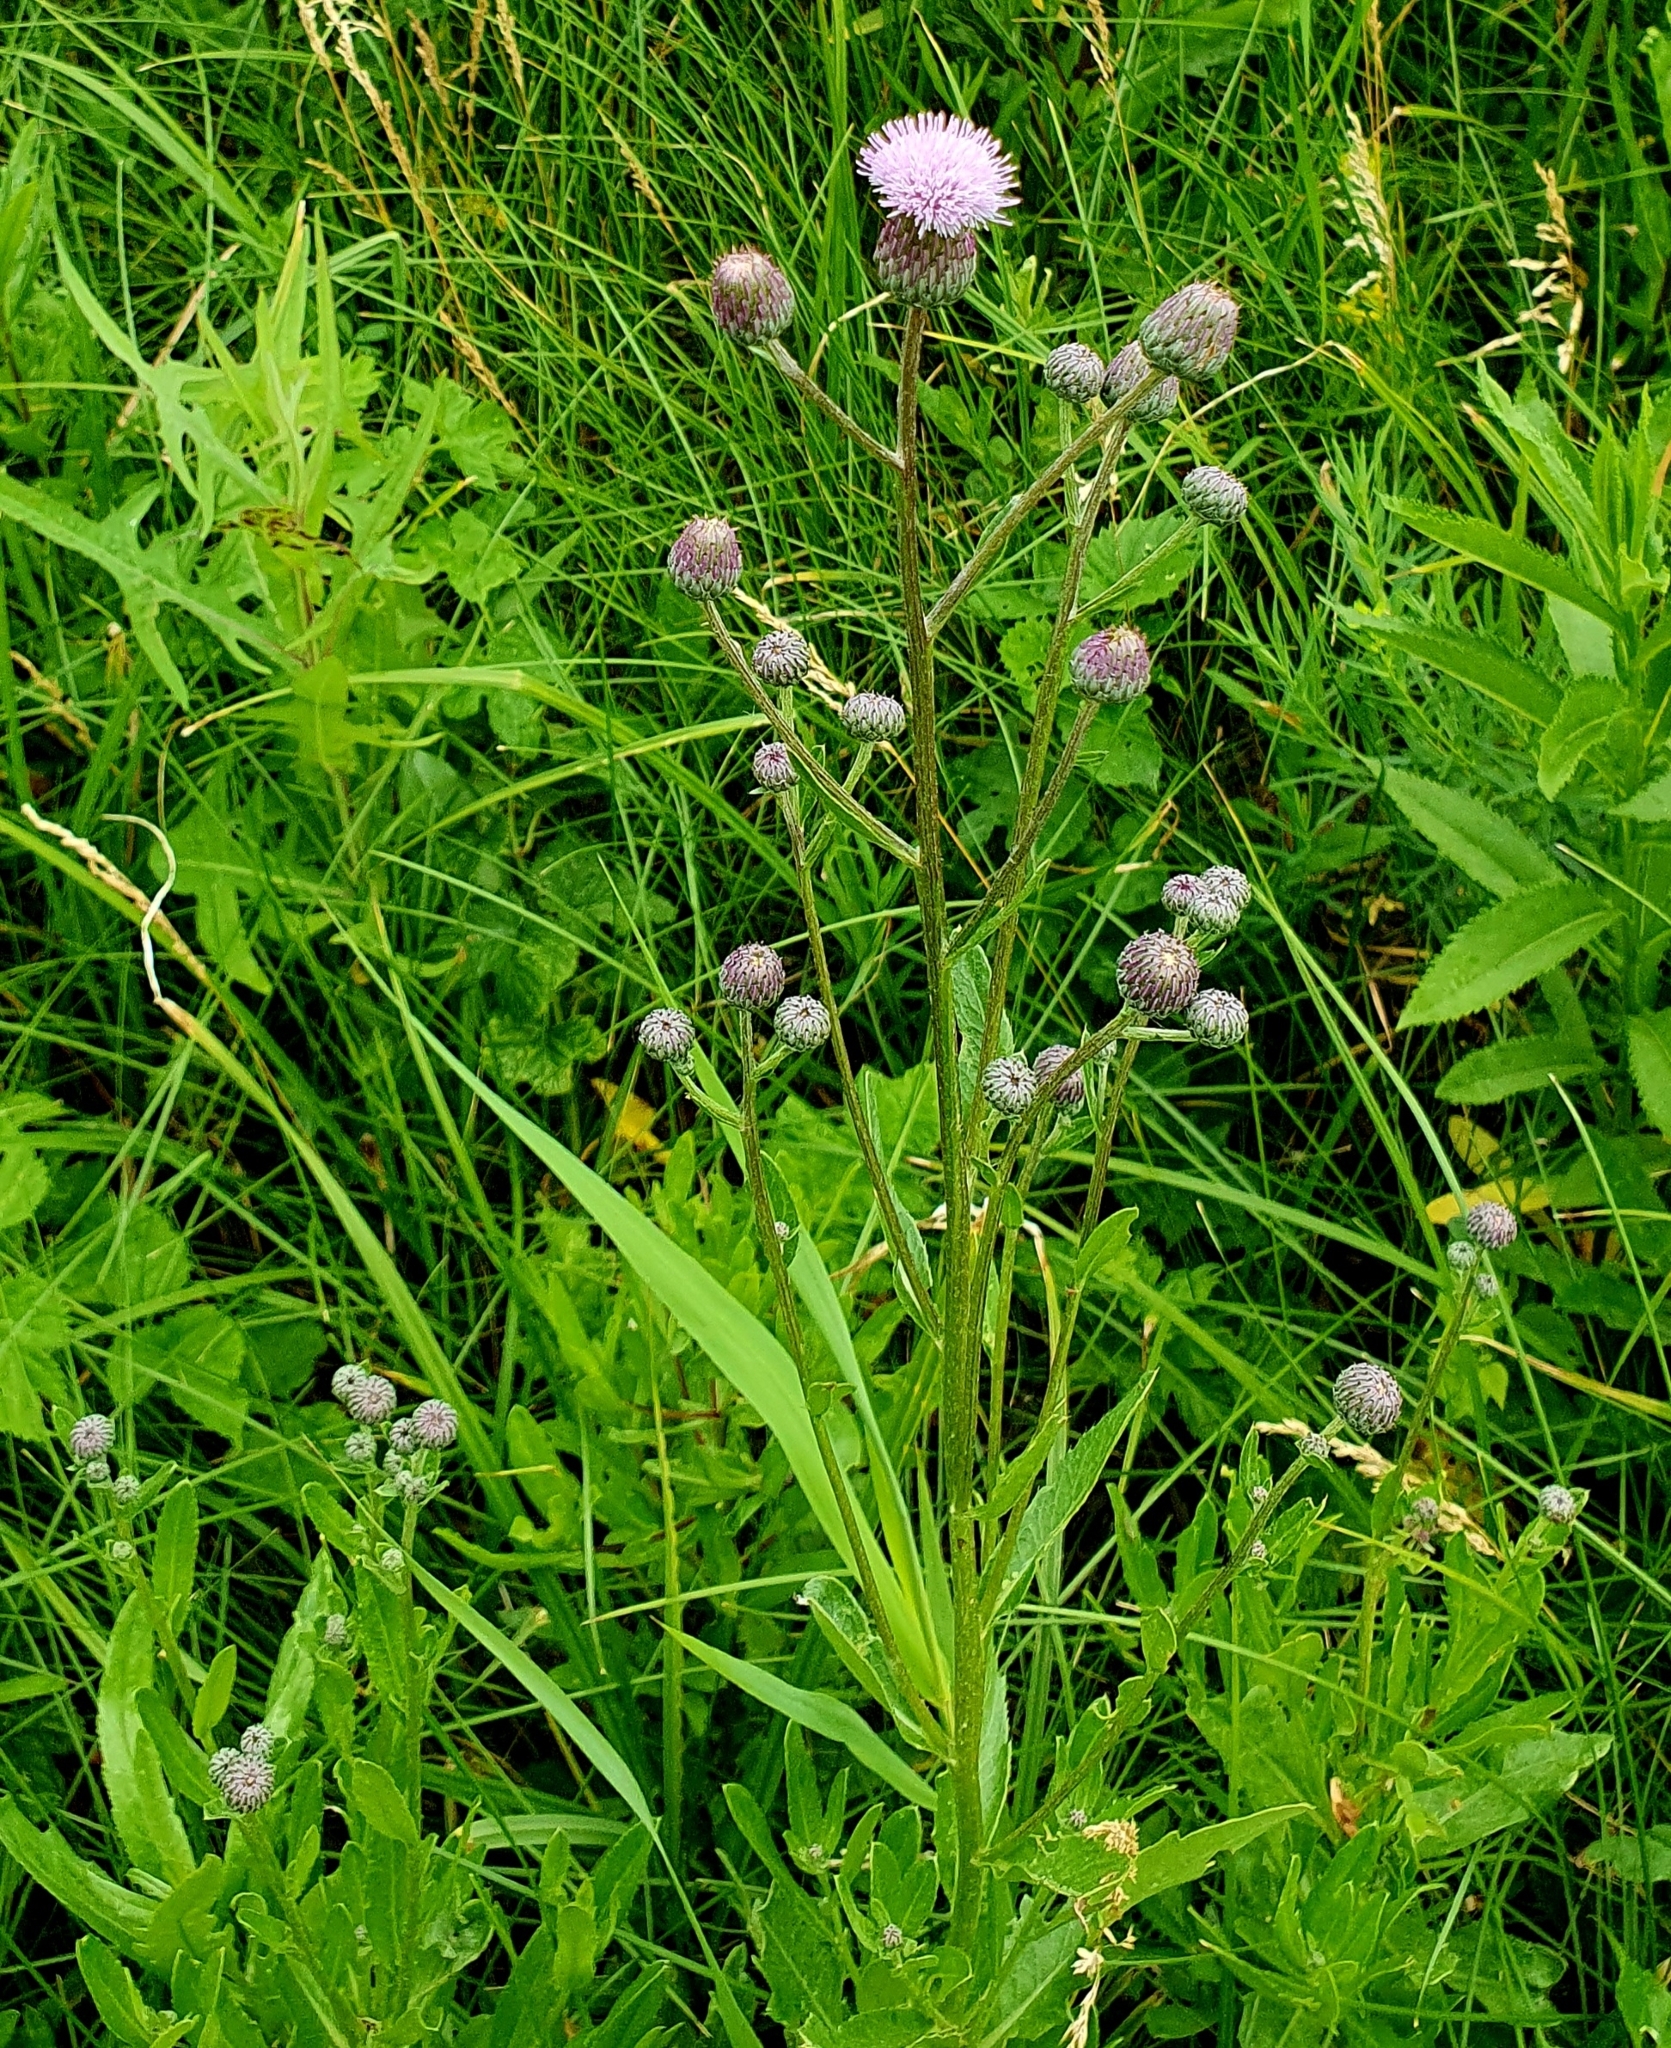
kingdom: Plantae
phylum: Tracheophyta
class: Magnoliopsida
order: Asterales
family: Asteraceae
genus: Cirsium
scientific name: Cirsium arvense
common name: Creeping thistle
